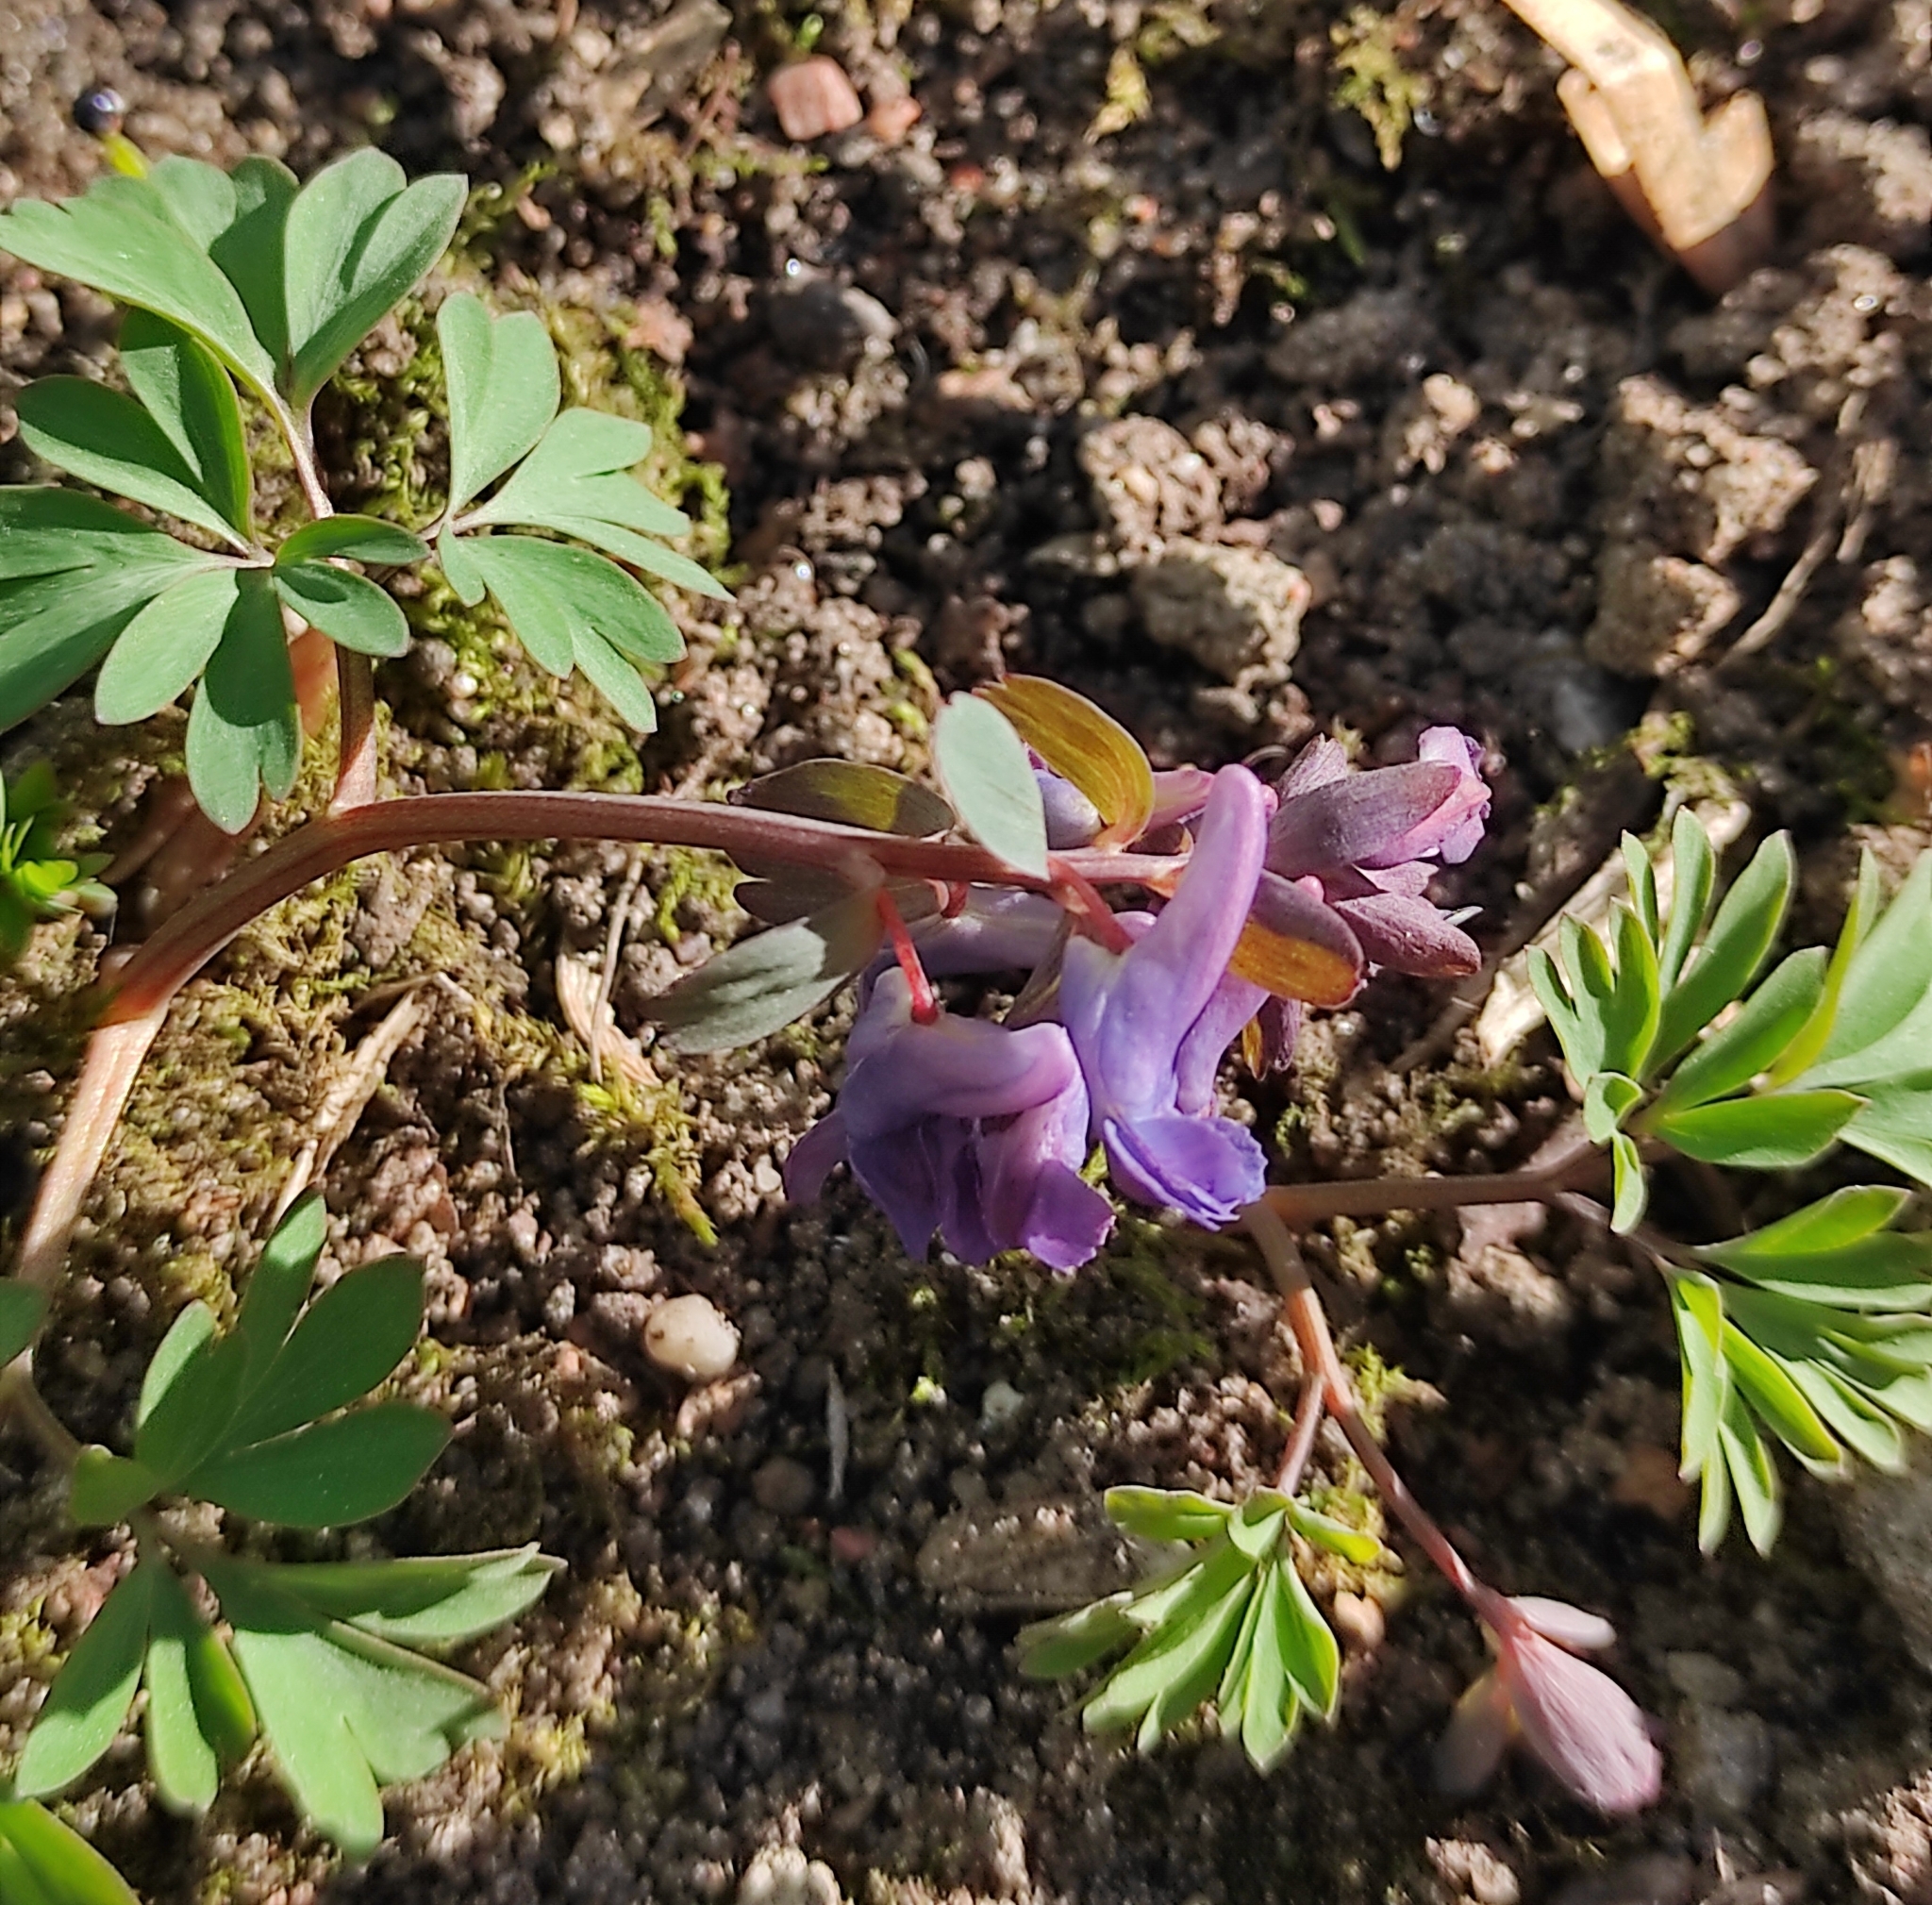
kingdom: Plantae
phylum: Tracheophyta
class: Magnoliopsida
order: Ranunculales
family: Papaveraceae
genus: Corydalis
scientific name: Corydalis solida
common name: Bird-in-a-bush
